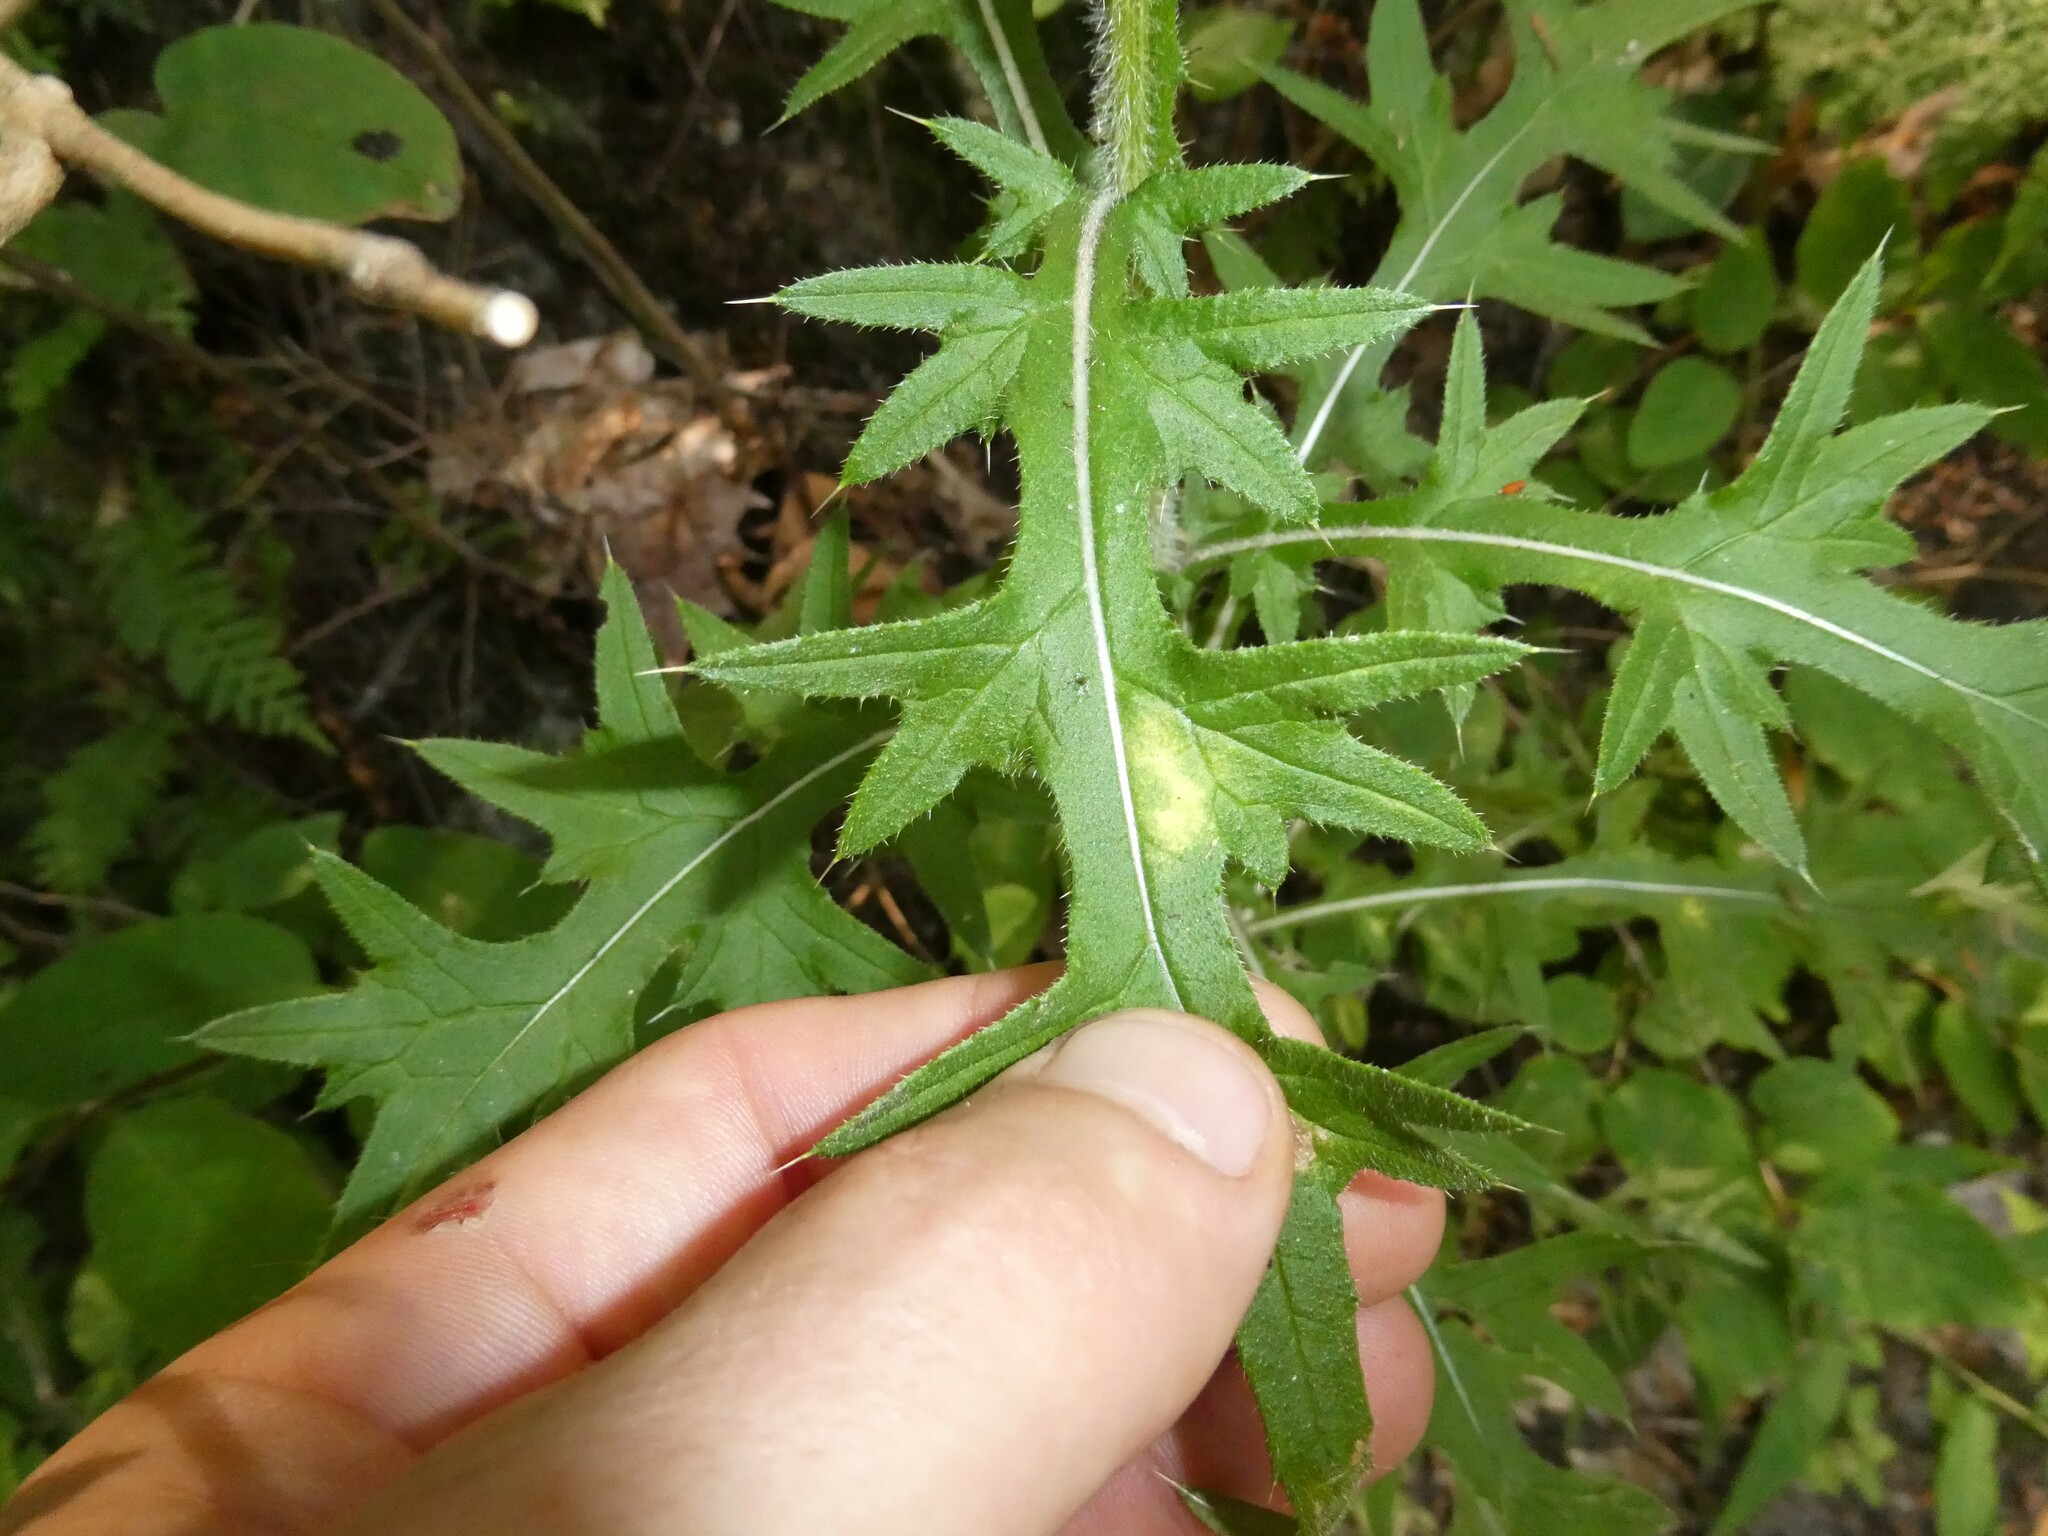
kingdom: Plantae
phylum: Tracheophyta
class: Magnoliopsida
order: Asterales
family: Asteraceae
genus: Cirsium
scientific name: Cirsium vulgare
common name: Bull thistle
